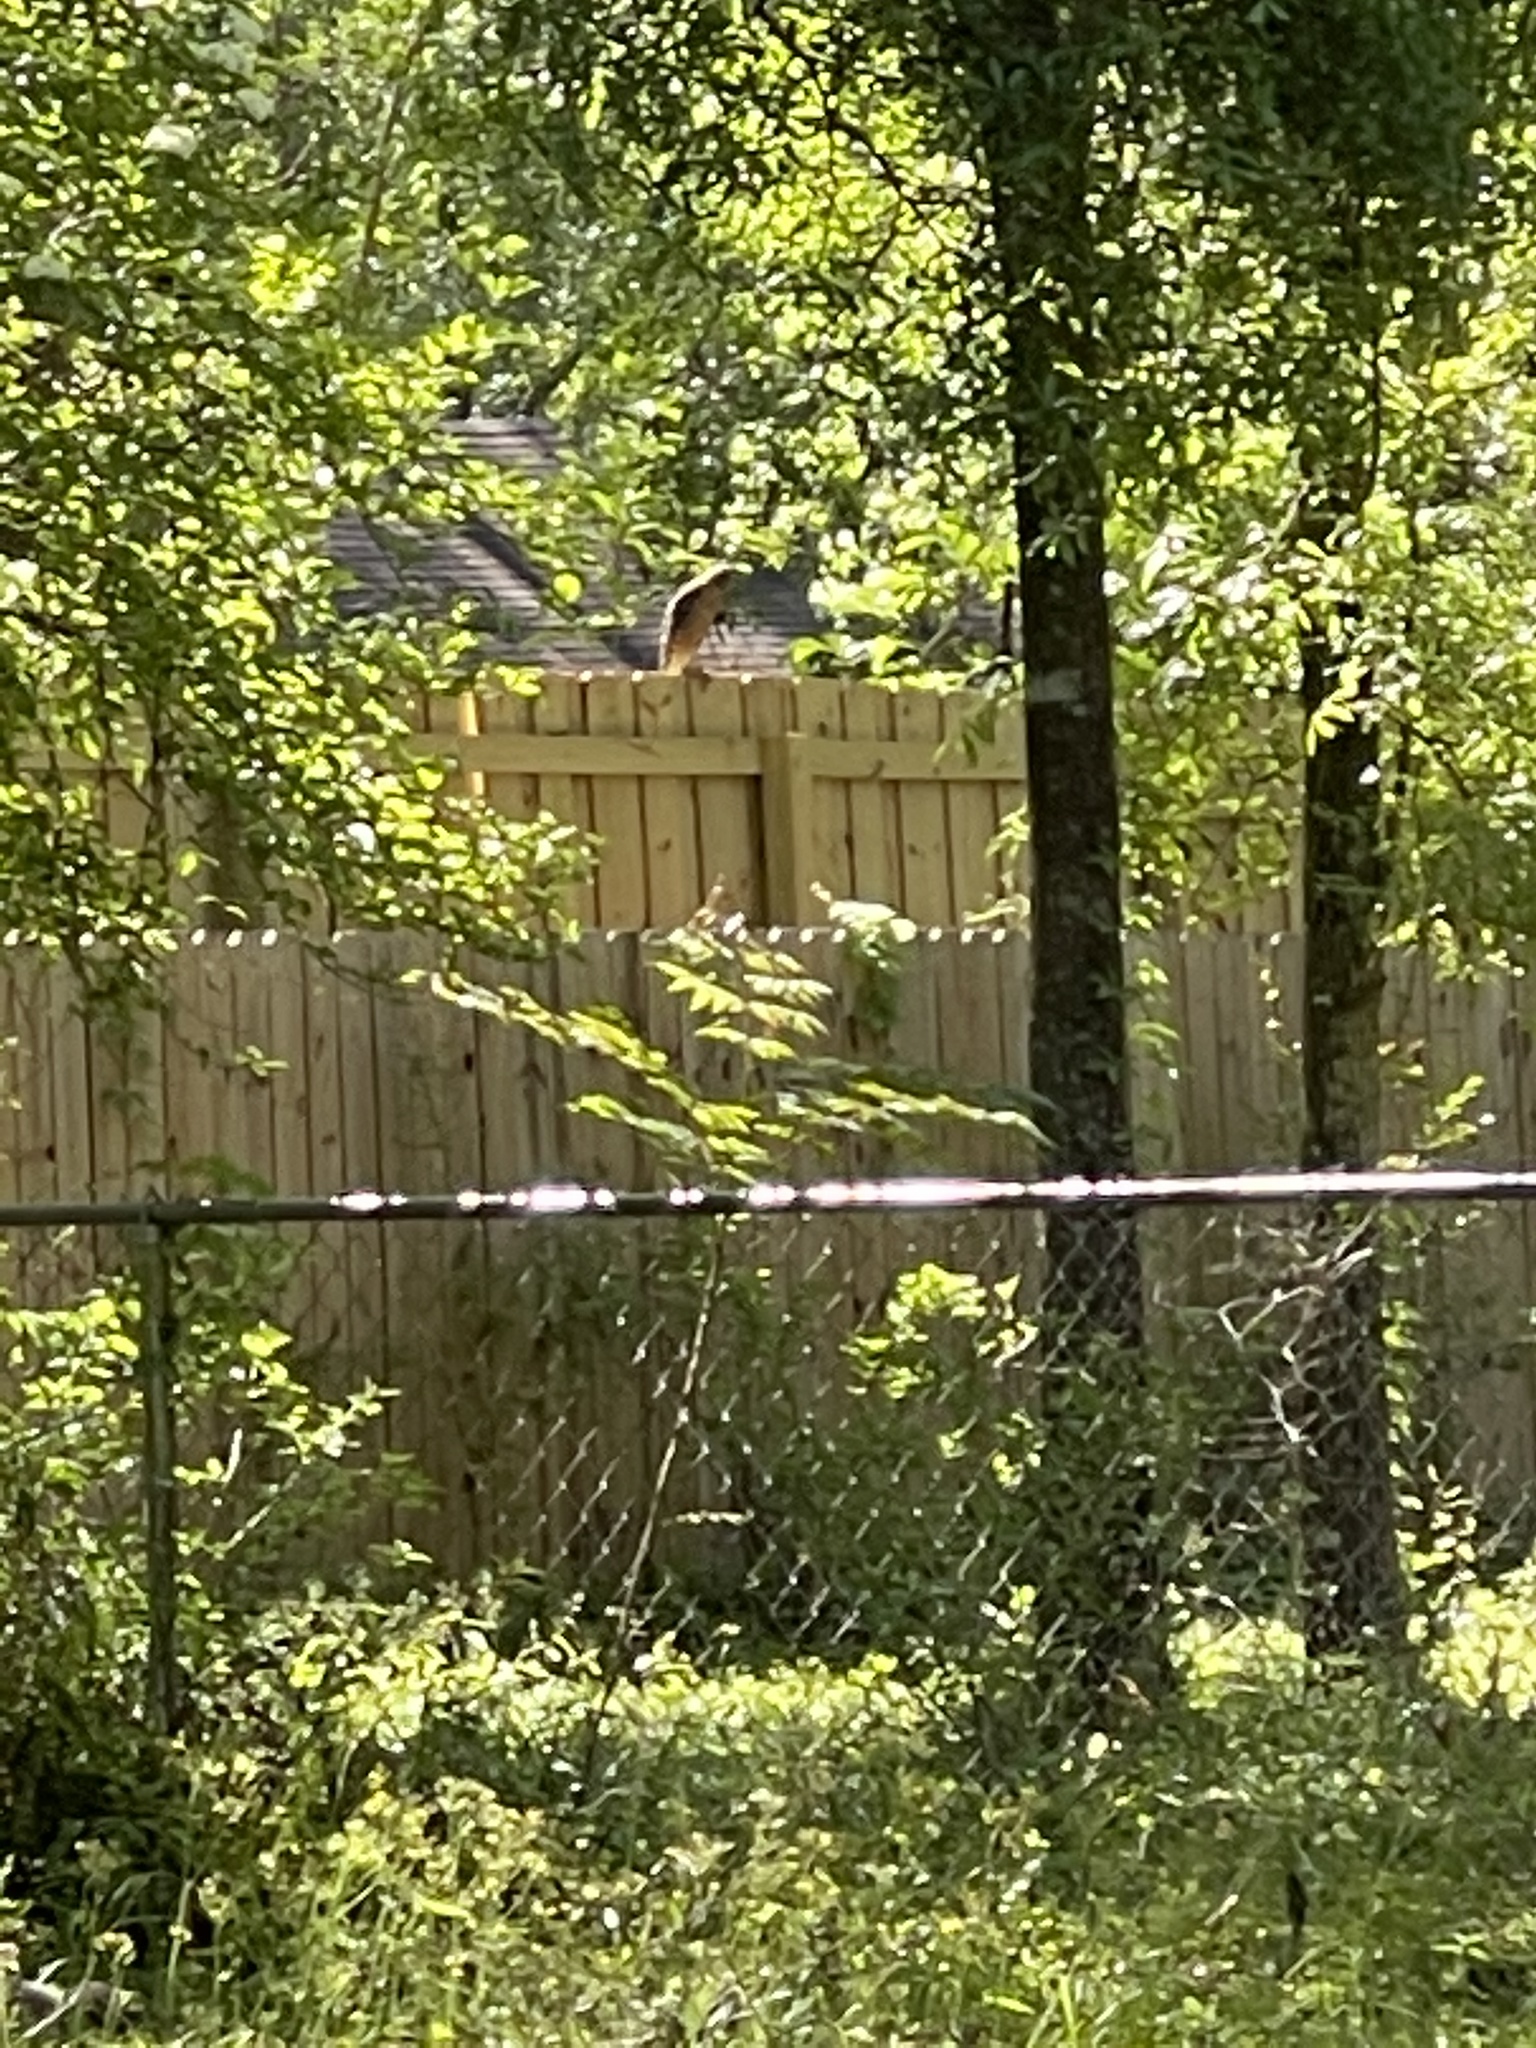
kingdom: Animalia
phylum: Chordata
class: Aves
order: Accipitriformes
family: Accipitridae
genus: Buteo
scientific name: Buteo lineatus
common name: Red-shouldered hawk
